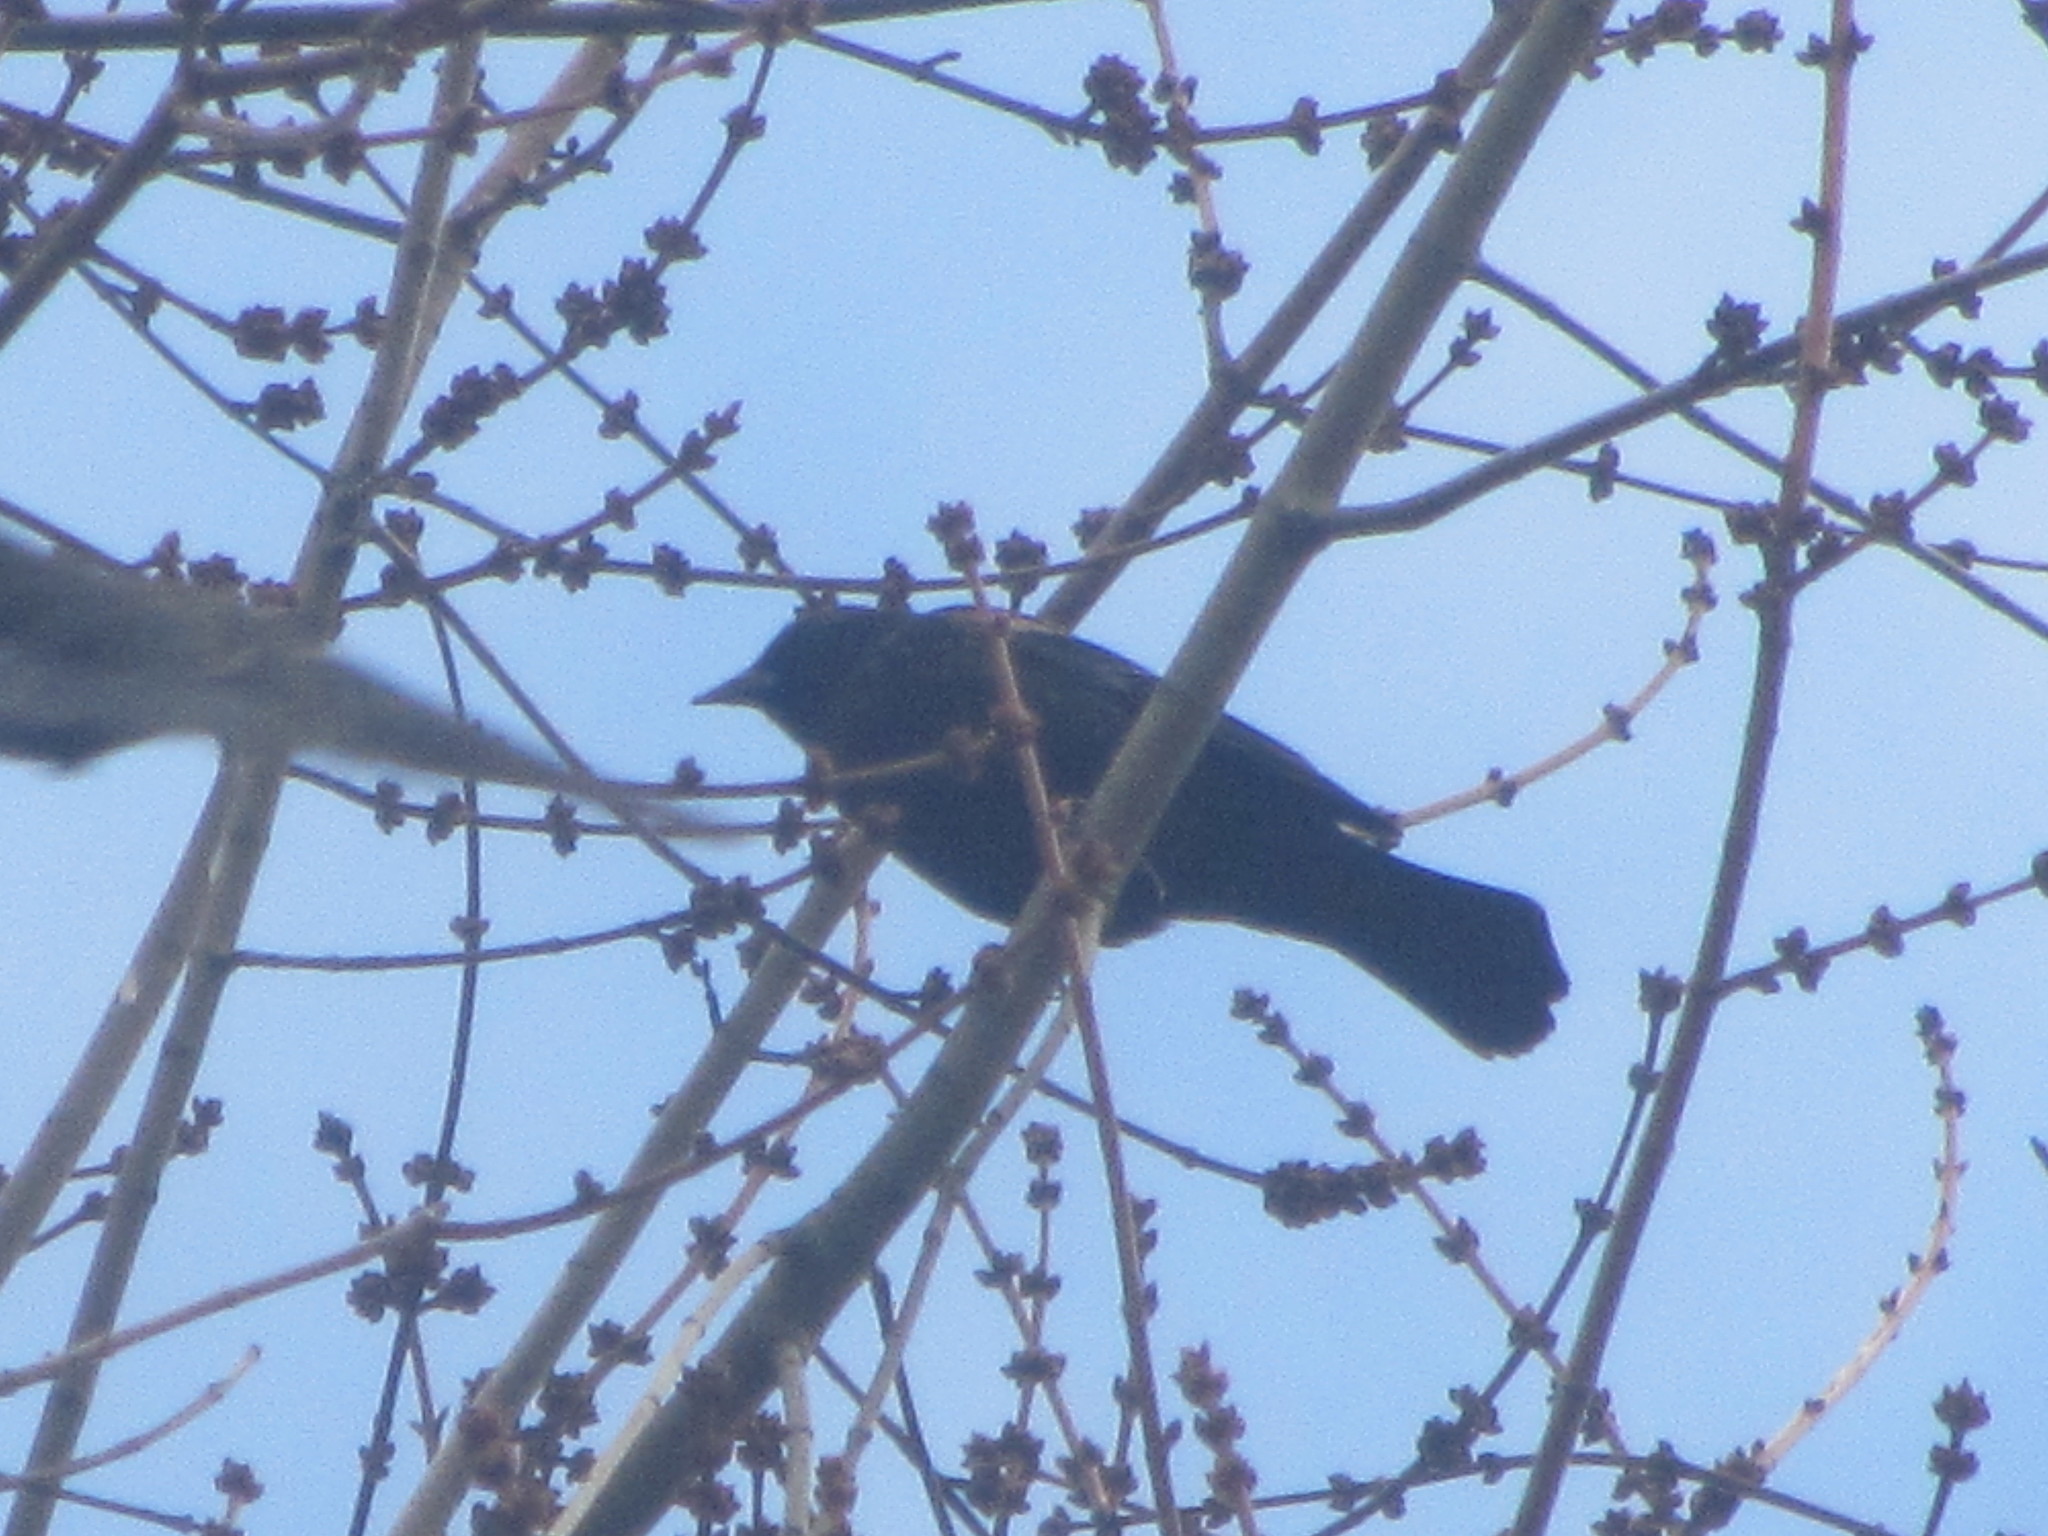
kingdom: Animalia
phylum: Chordata
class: Aves
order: Passeriformes
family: Icteridae
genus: Agelaius
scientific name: Agelaius phoeniceus
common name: Red-winged blackbird
